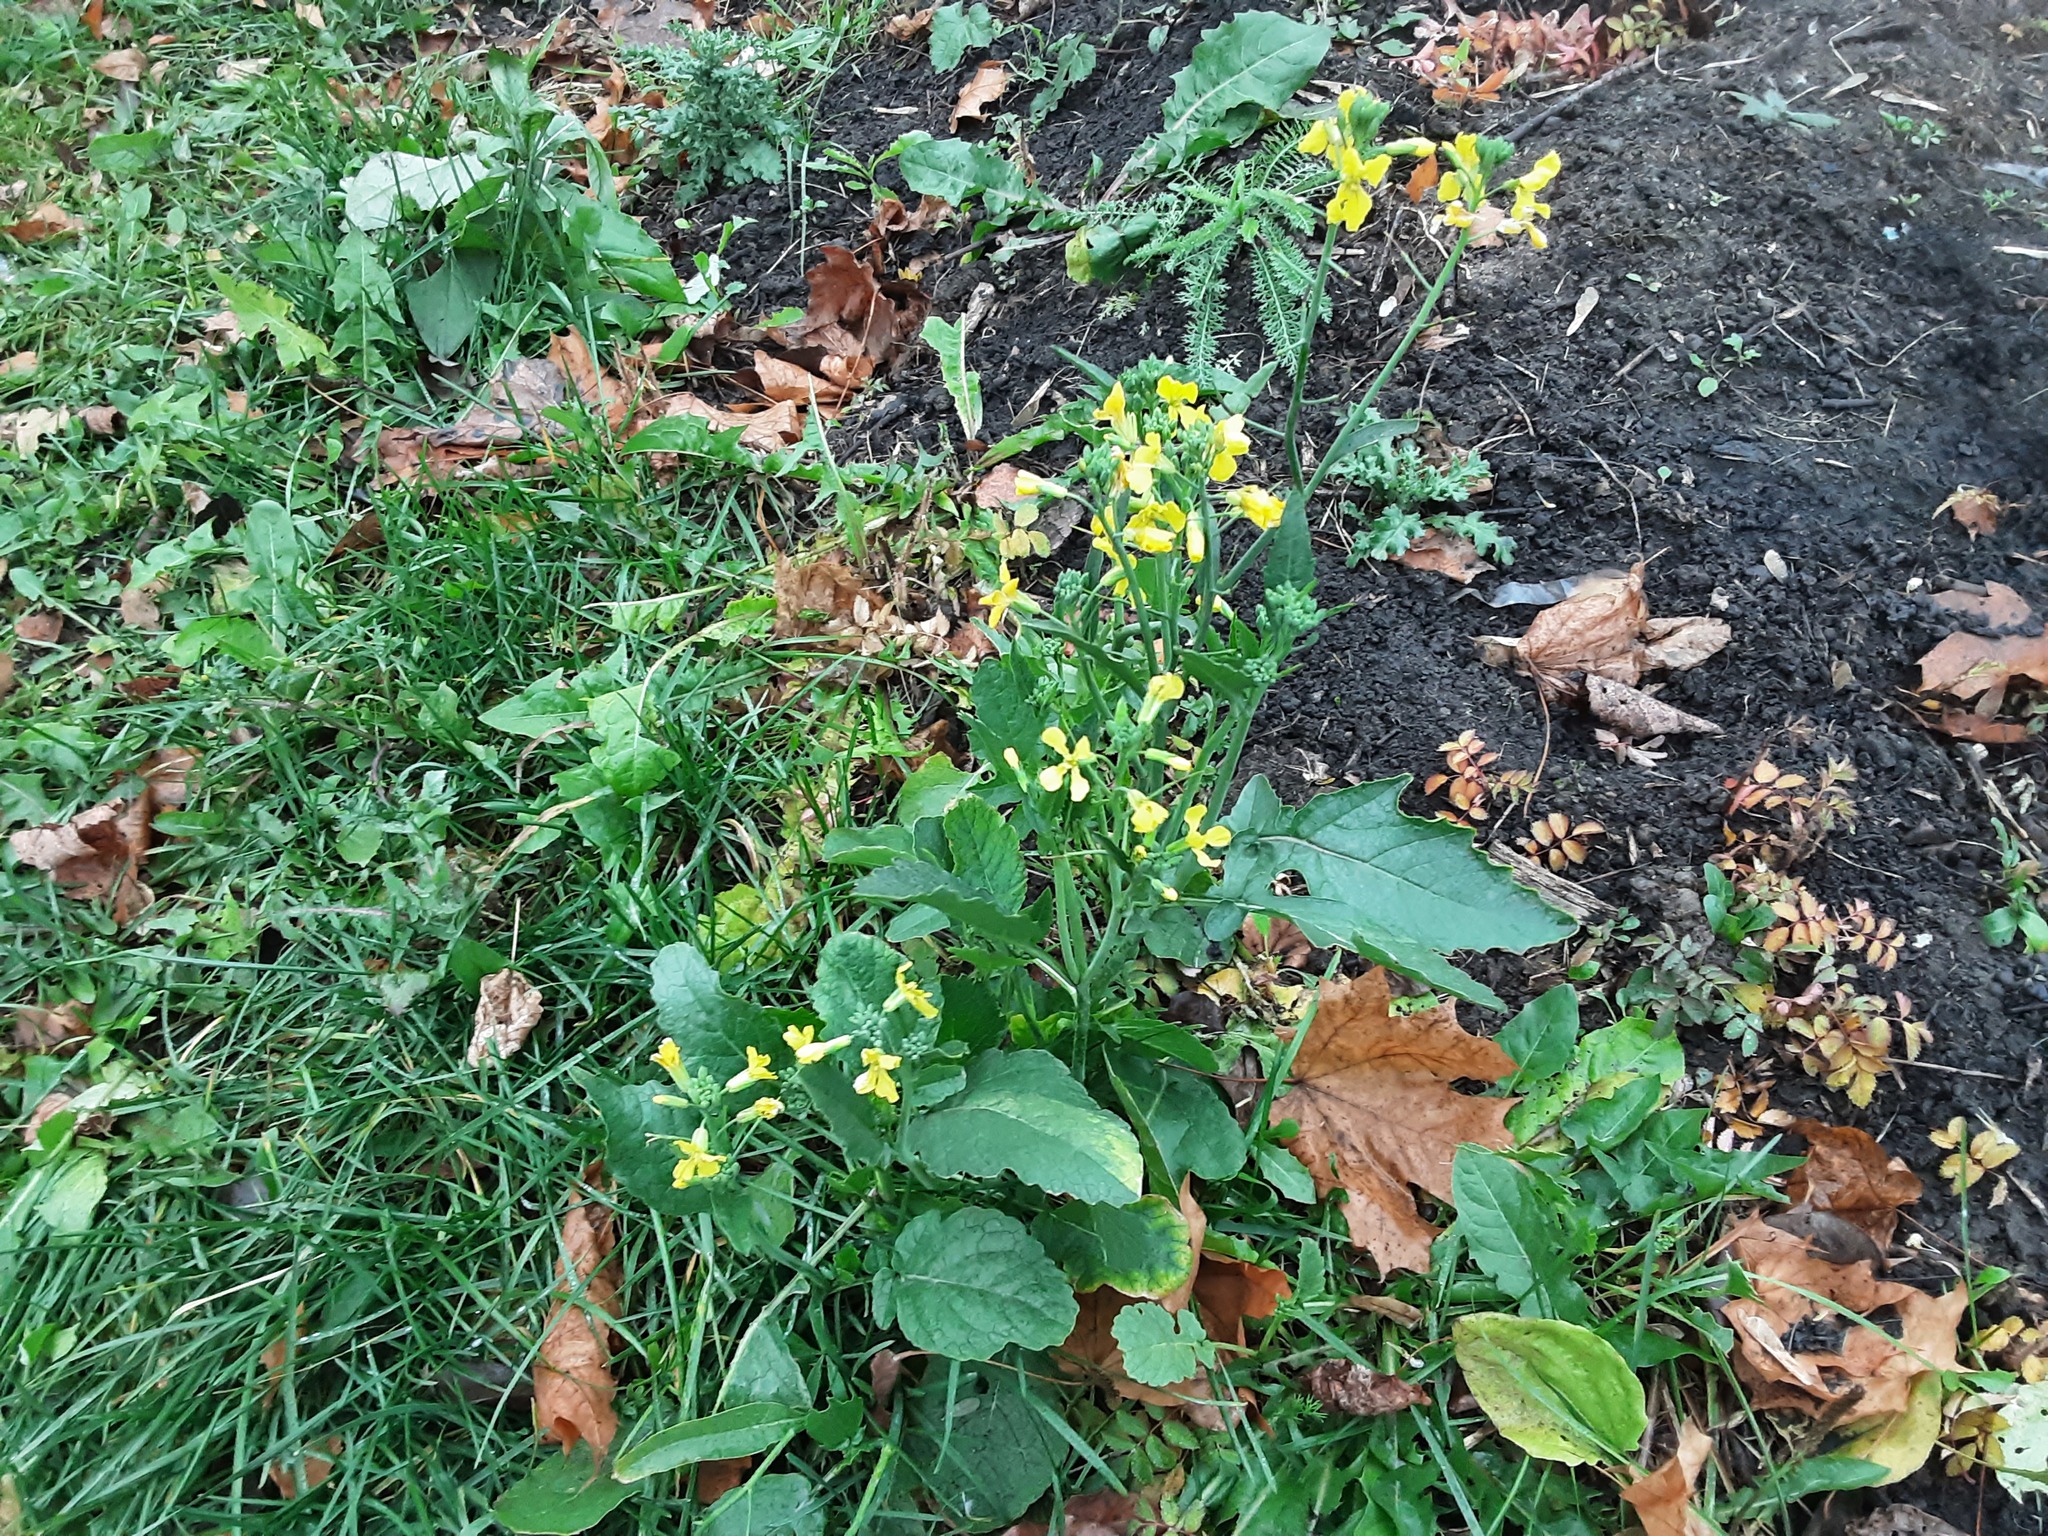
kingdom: Plantae
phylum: Tracheophyta
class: Magnoliopsida
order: Brassicales
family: Brassicaceae
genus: Raphanus
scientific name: Raphanus raphanistrum
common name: Wild radish
